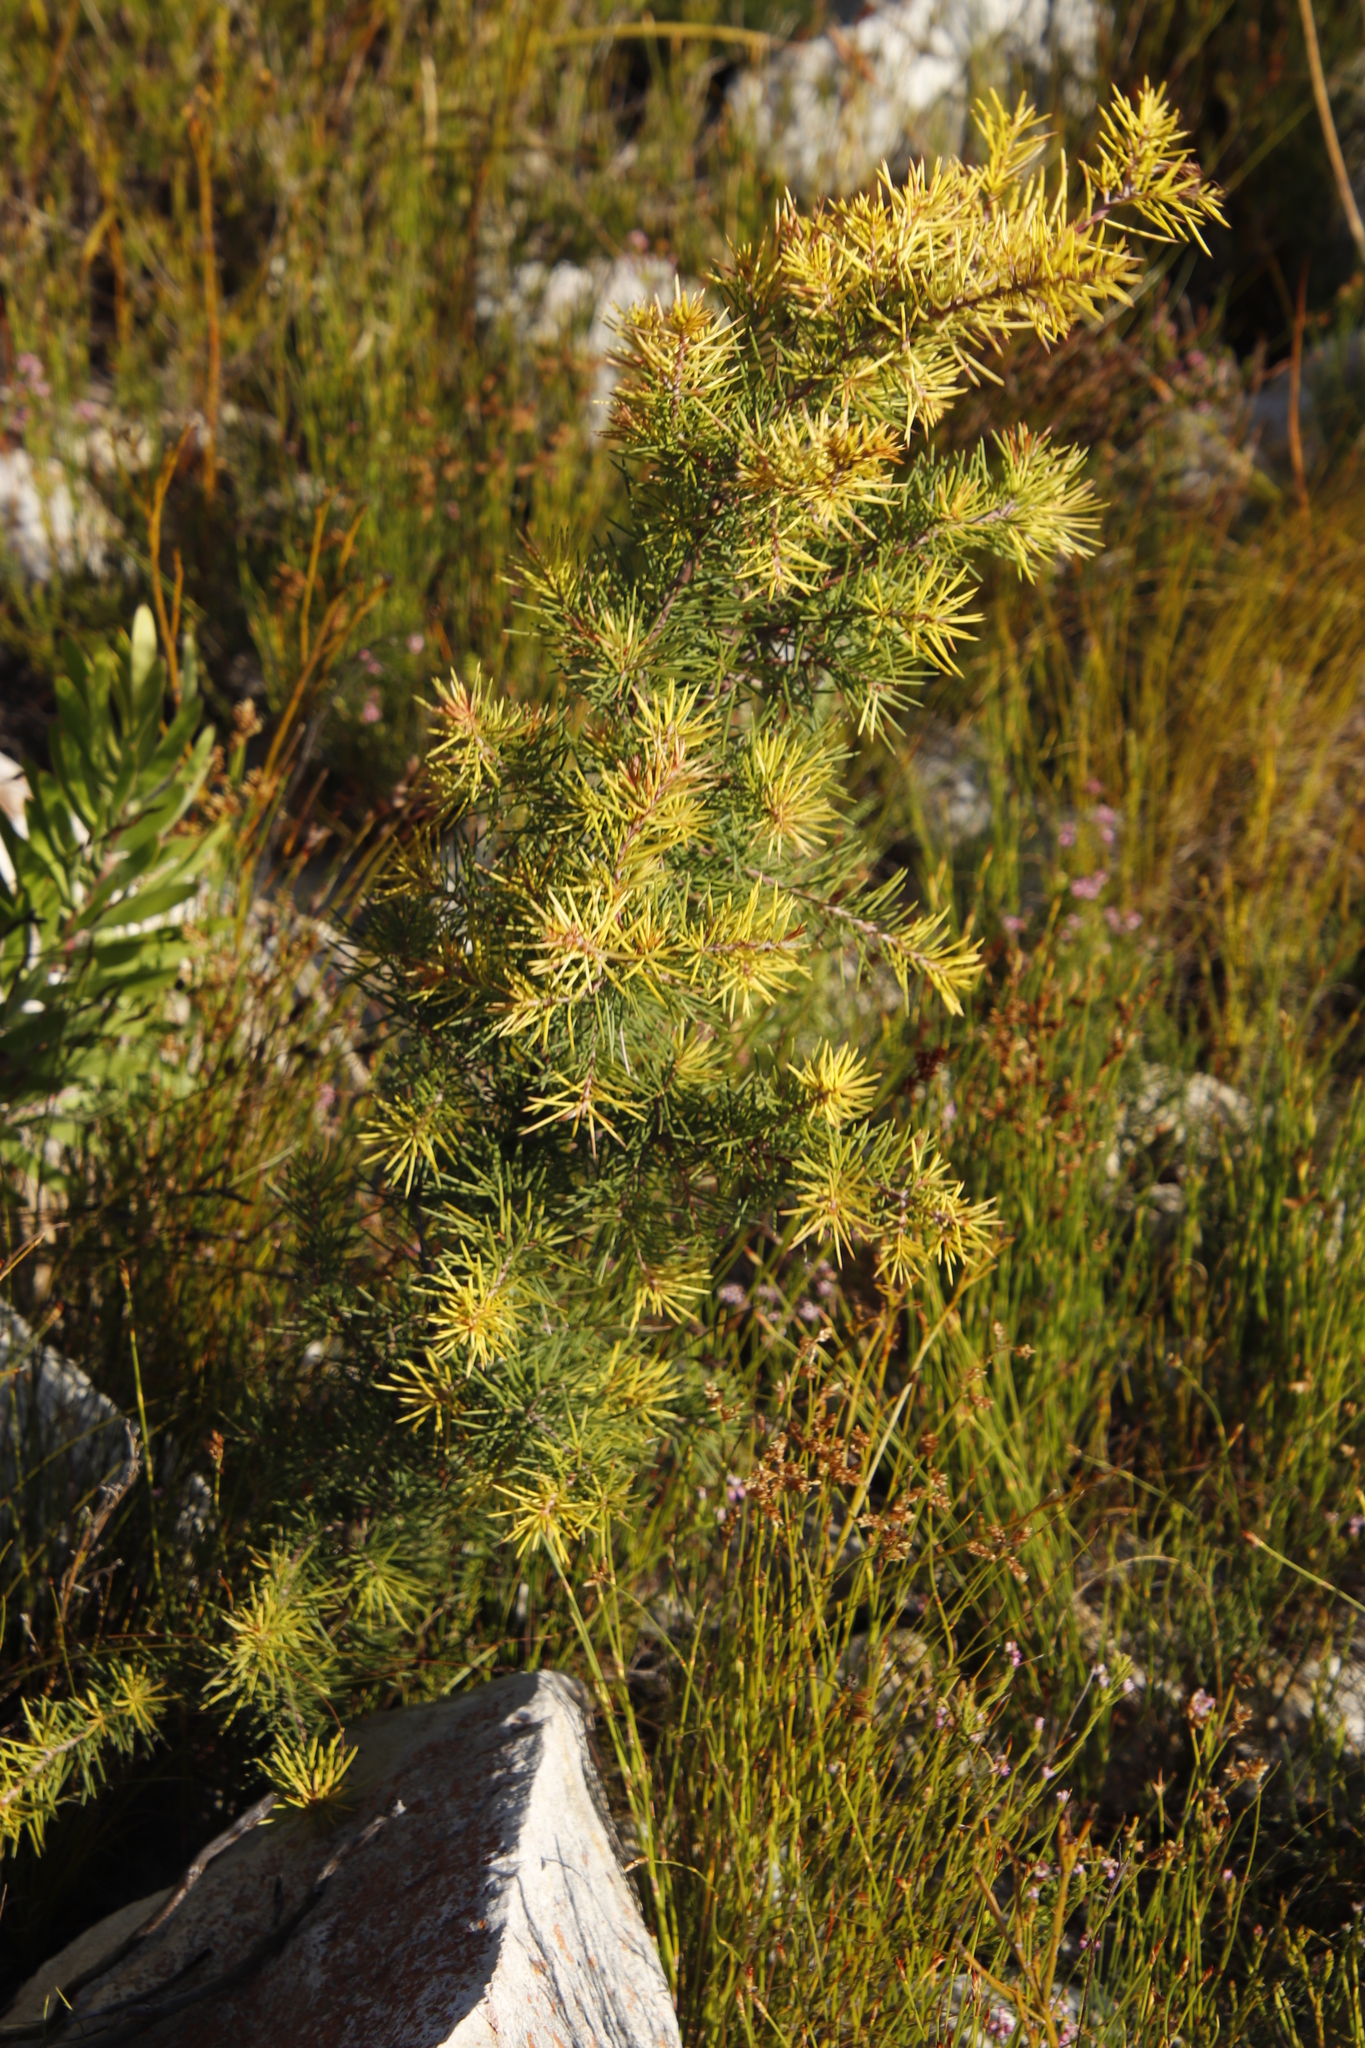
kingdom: Plantae
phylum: Tracheophyta
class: Magnoliopsida
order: Proteales
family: Proteaceae
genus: Hakea
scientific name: Hakea sericea
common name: Needle bush
